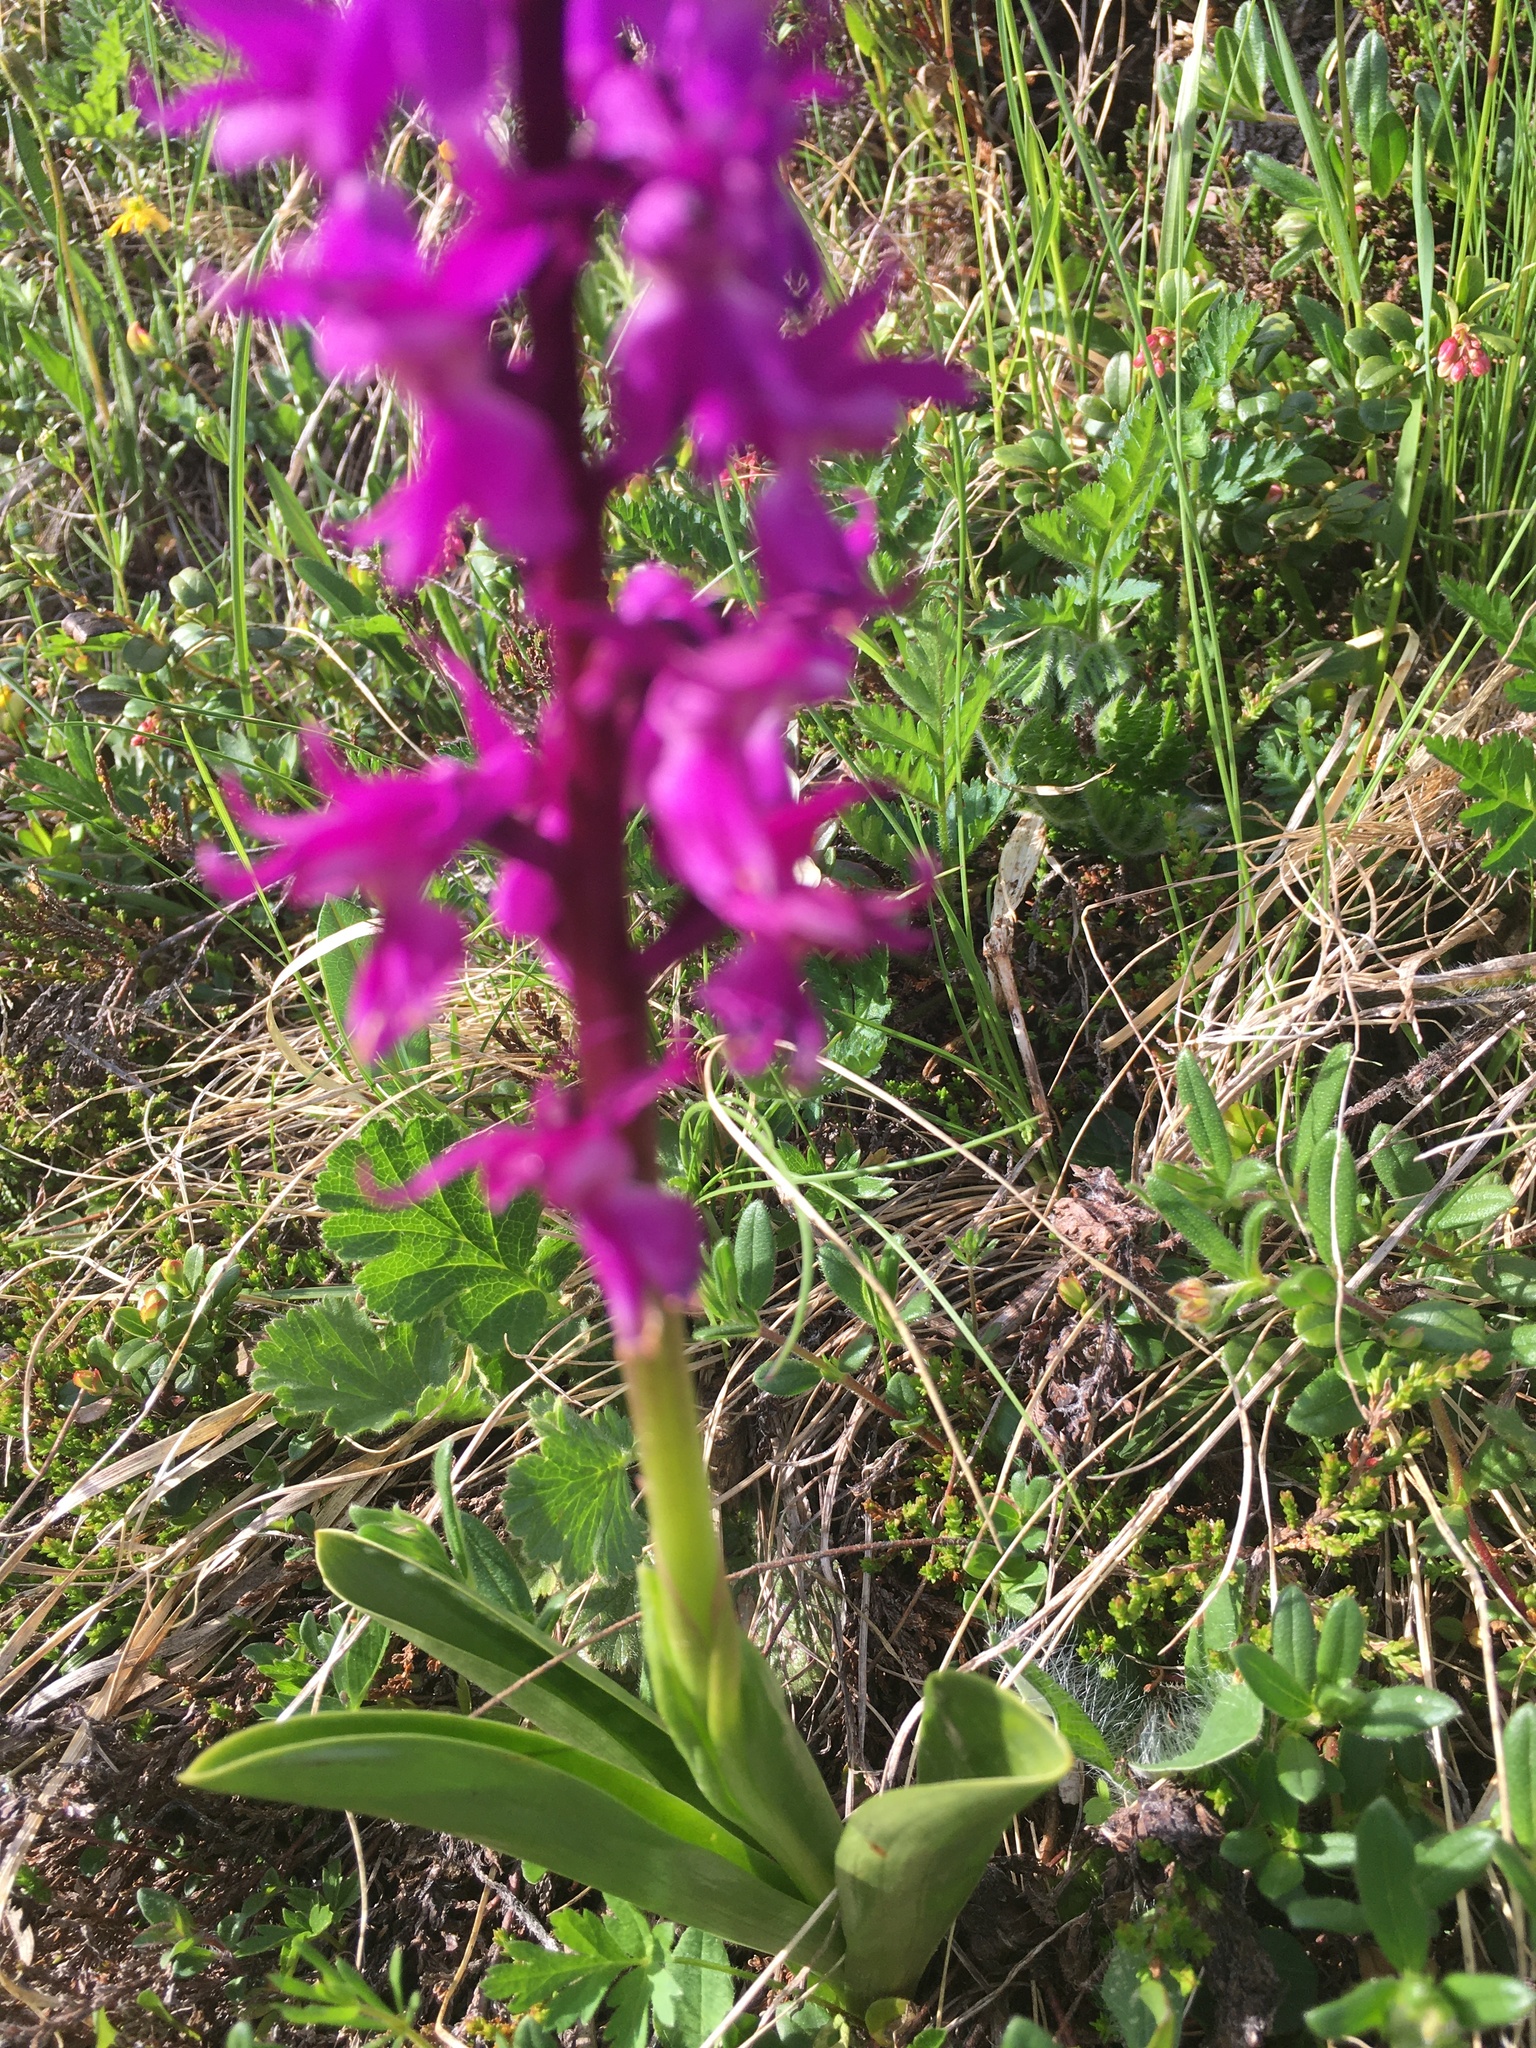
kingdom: Plantae
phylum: Tracheophyta
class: Liliopsida
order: Asparagales
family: Orchidaceae
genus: Orchis
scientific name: Orchis mascula
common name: Early-purple orchid
